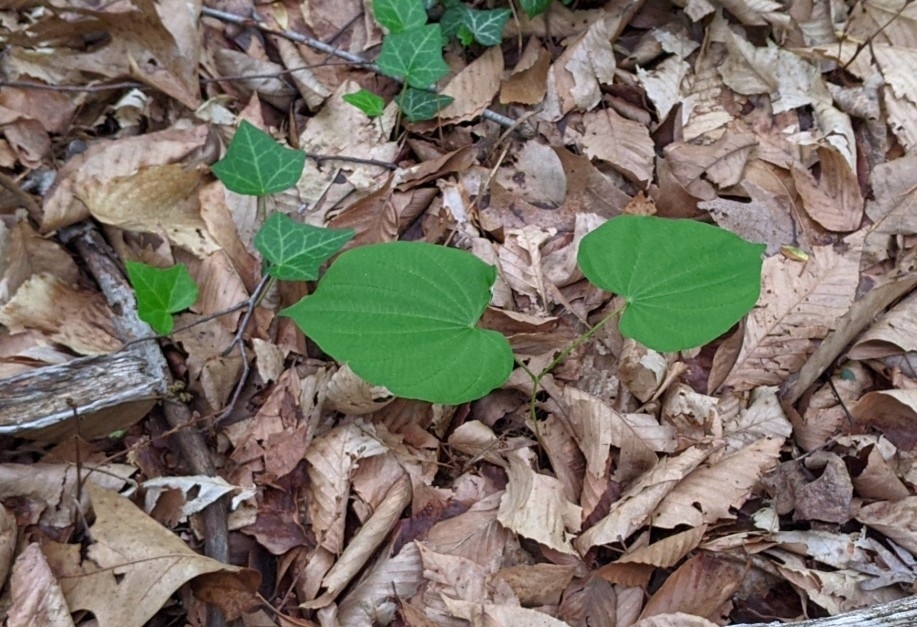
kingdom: Plantae
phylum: Tracheophyta
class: Liliopsida
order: Dioscoreales
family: Dioscoreaceae
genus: Dioscorea
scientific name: Dioscorea villosa
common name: Wild yam
